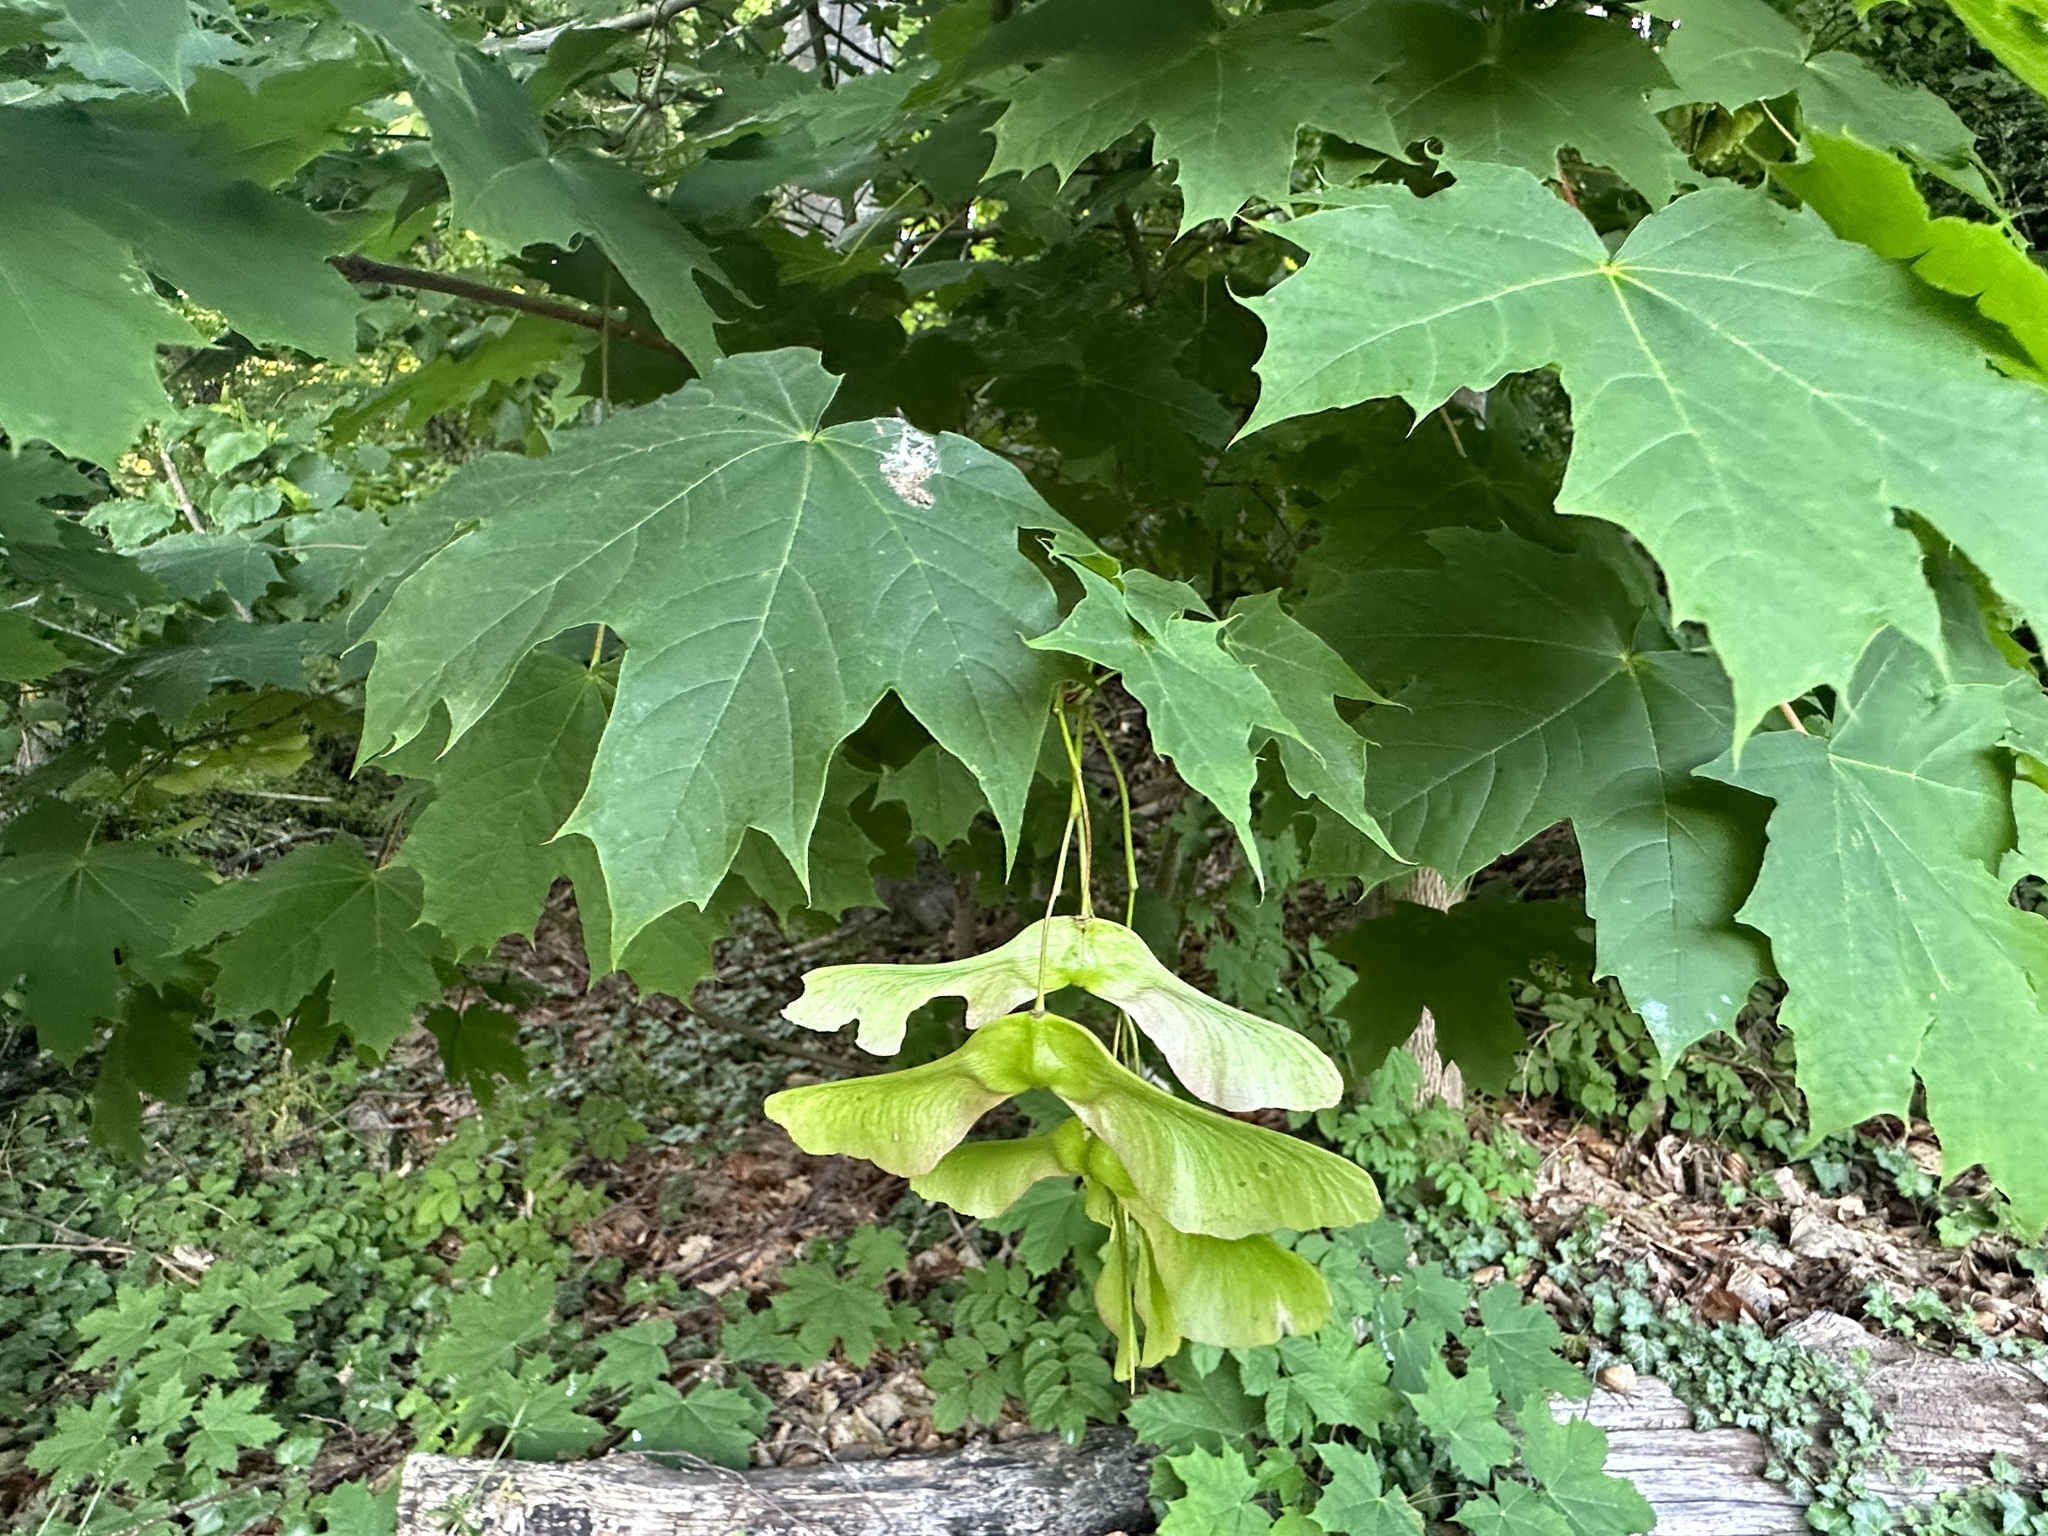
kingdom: Plantae
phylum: Tracheophyta
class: Magnoliopsida
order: Sapindales
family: Sapindaceae
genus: Acer
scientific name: Acer platanoides
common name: Norway maple
